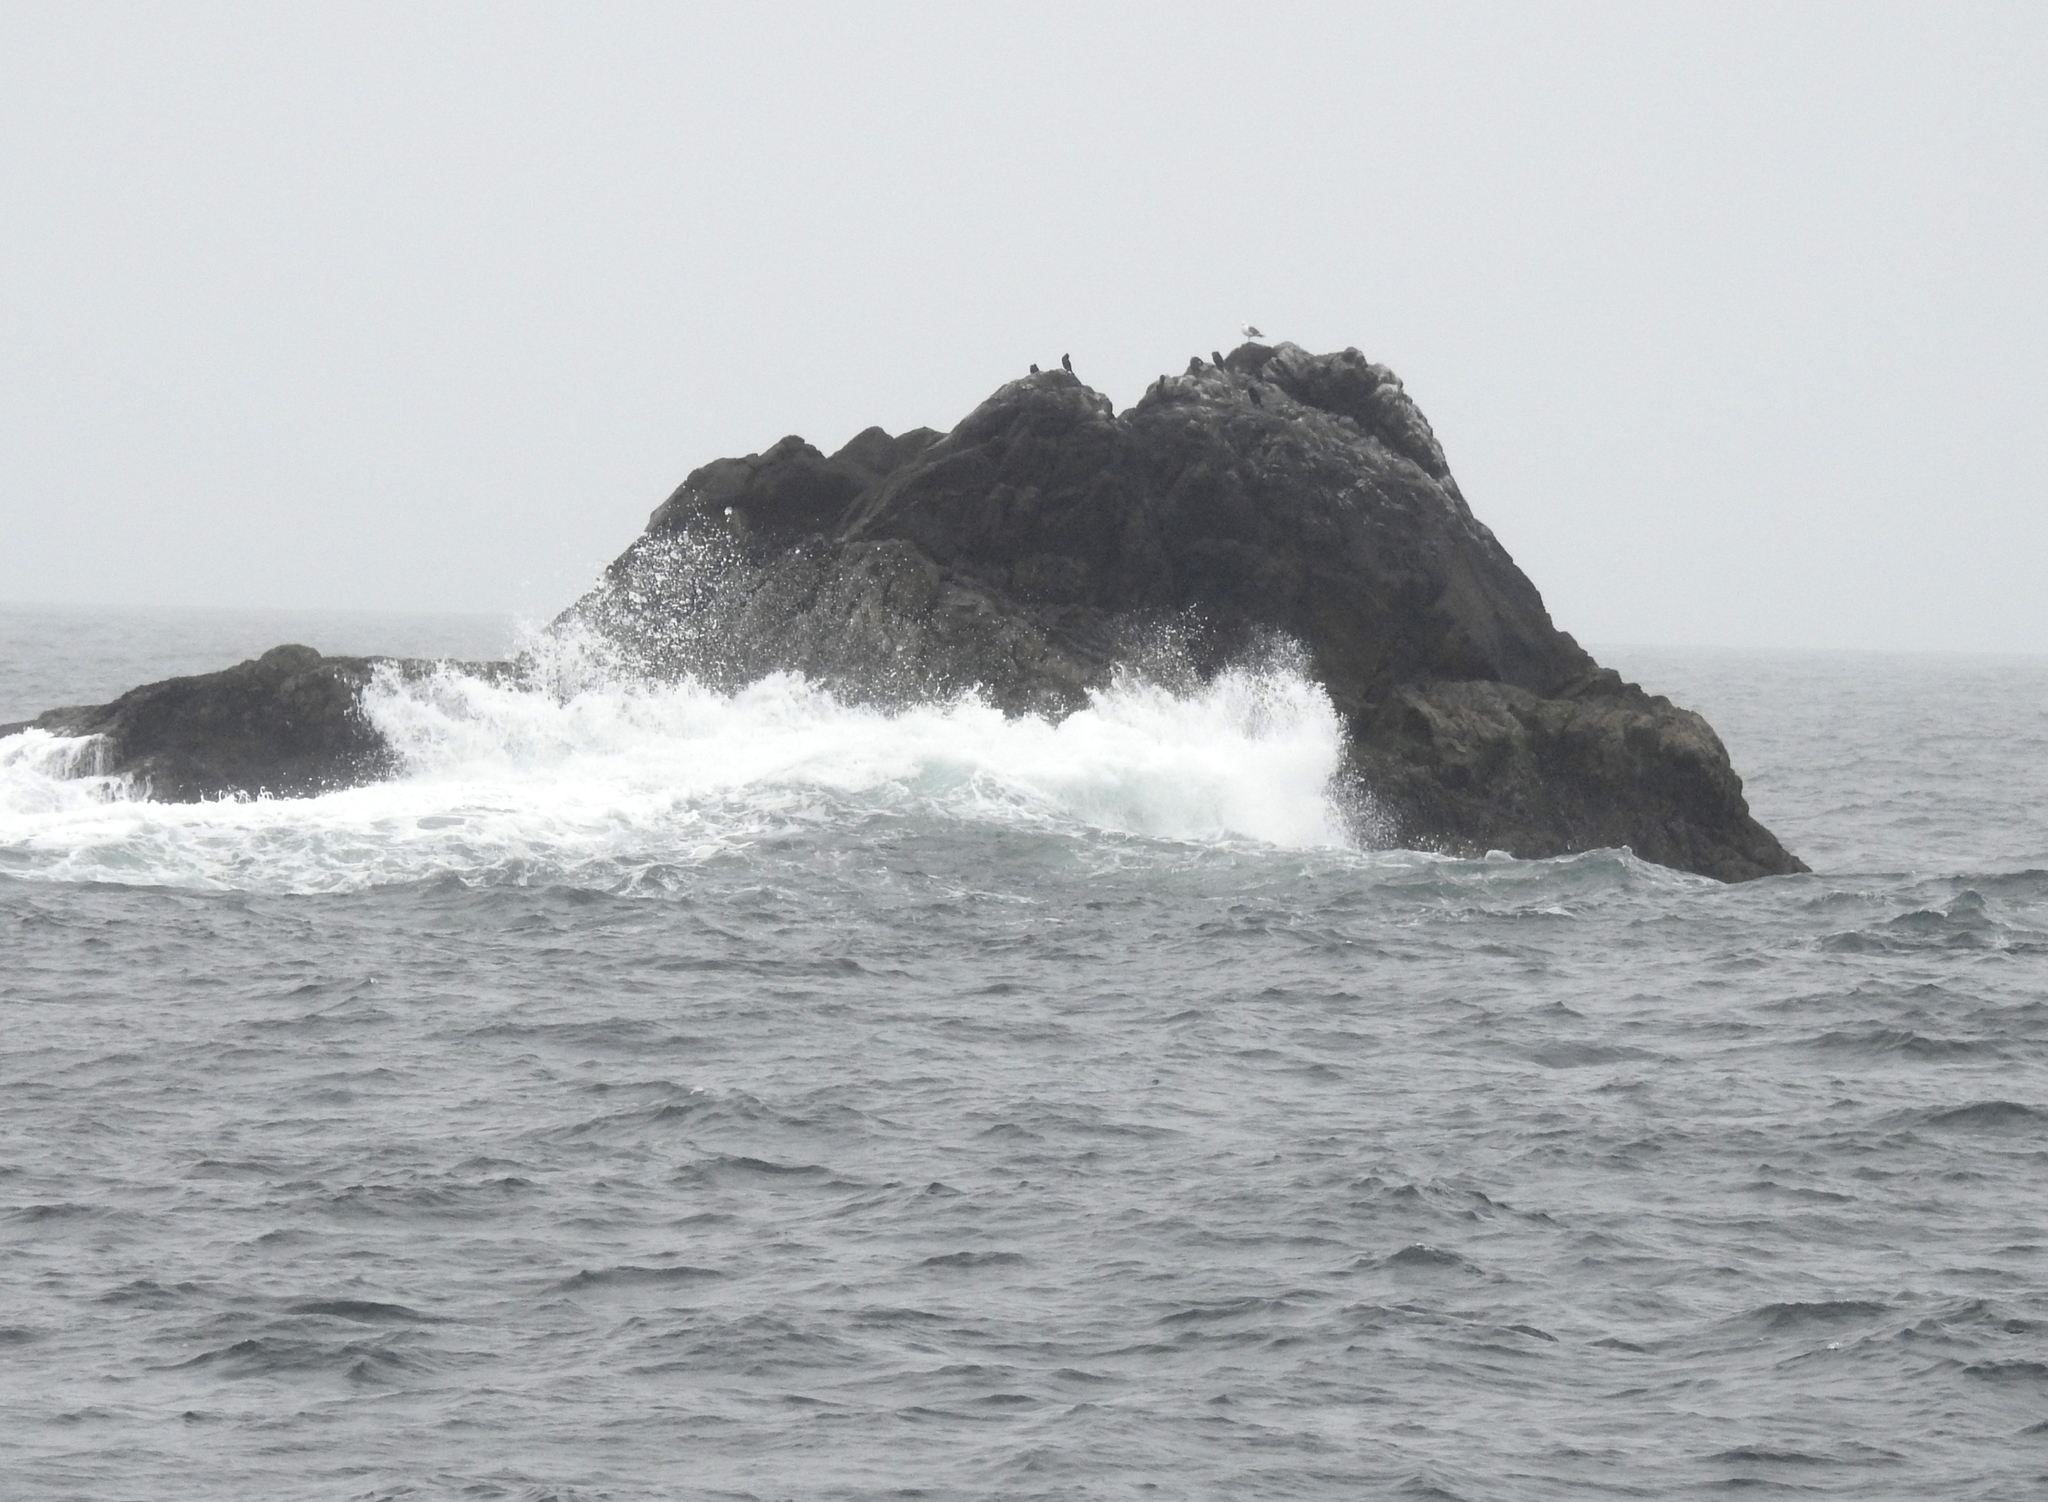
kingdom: Animalia
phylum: Chordata
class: Aves
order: Suliformes
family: Phalacrocoracidae
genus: Phalacrocorax
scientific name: Phalacrocorax pelagicus
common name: Pelagic cormorant
